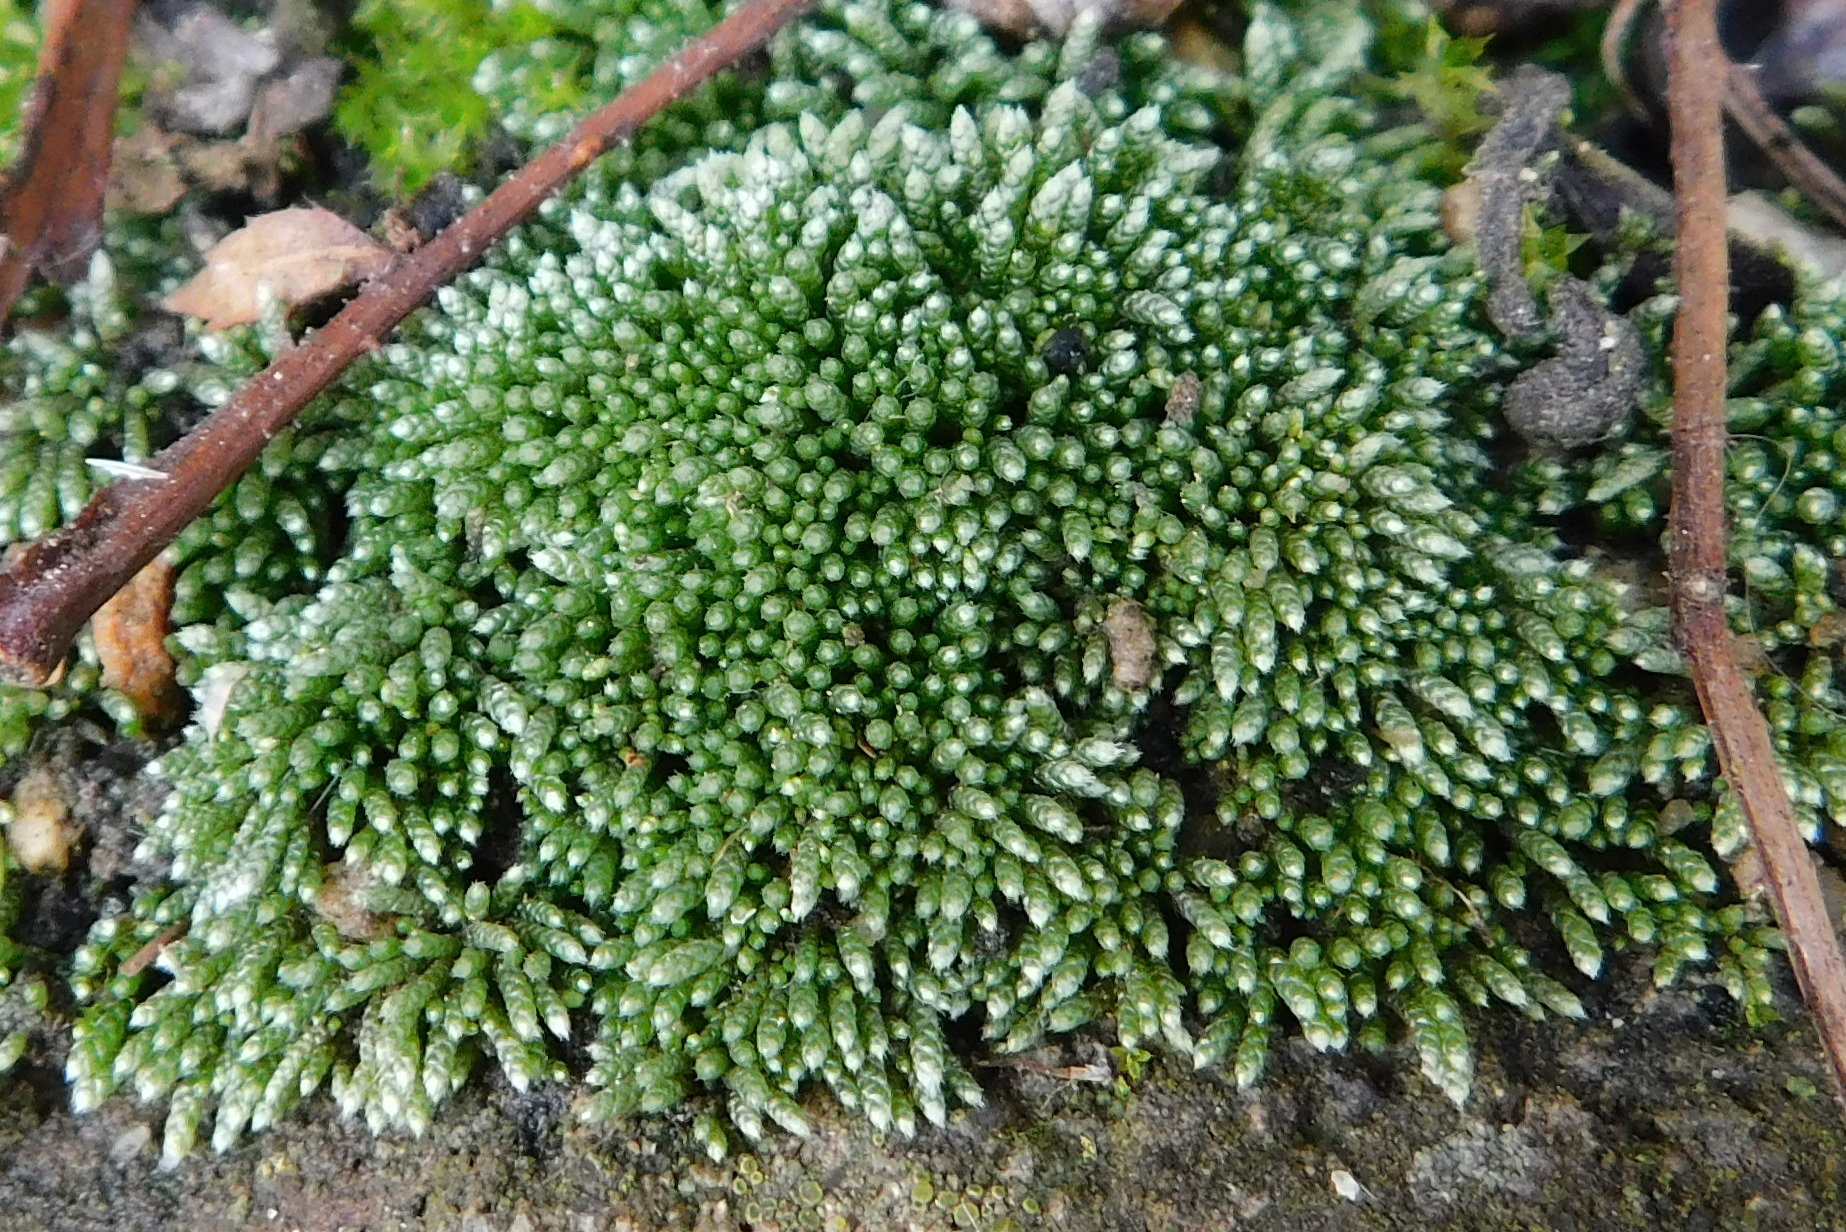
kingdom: Plantae
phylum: Bryophyta
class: Bryopsida
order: Bryales
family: Bryaceae
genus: Bryum
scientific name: Bryum argenteum
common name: Silver-moss
